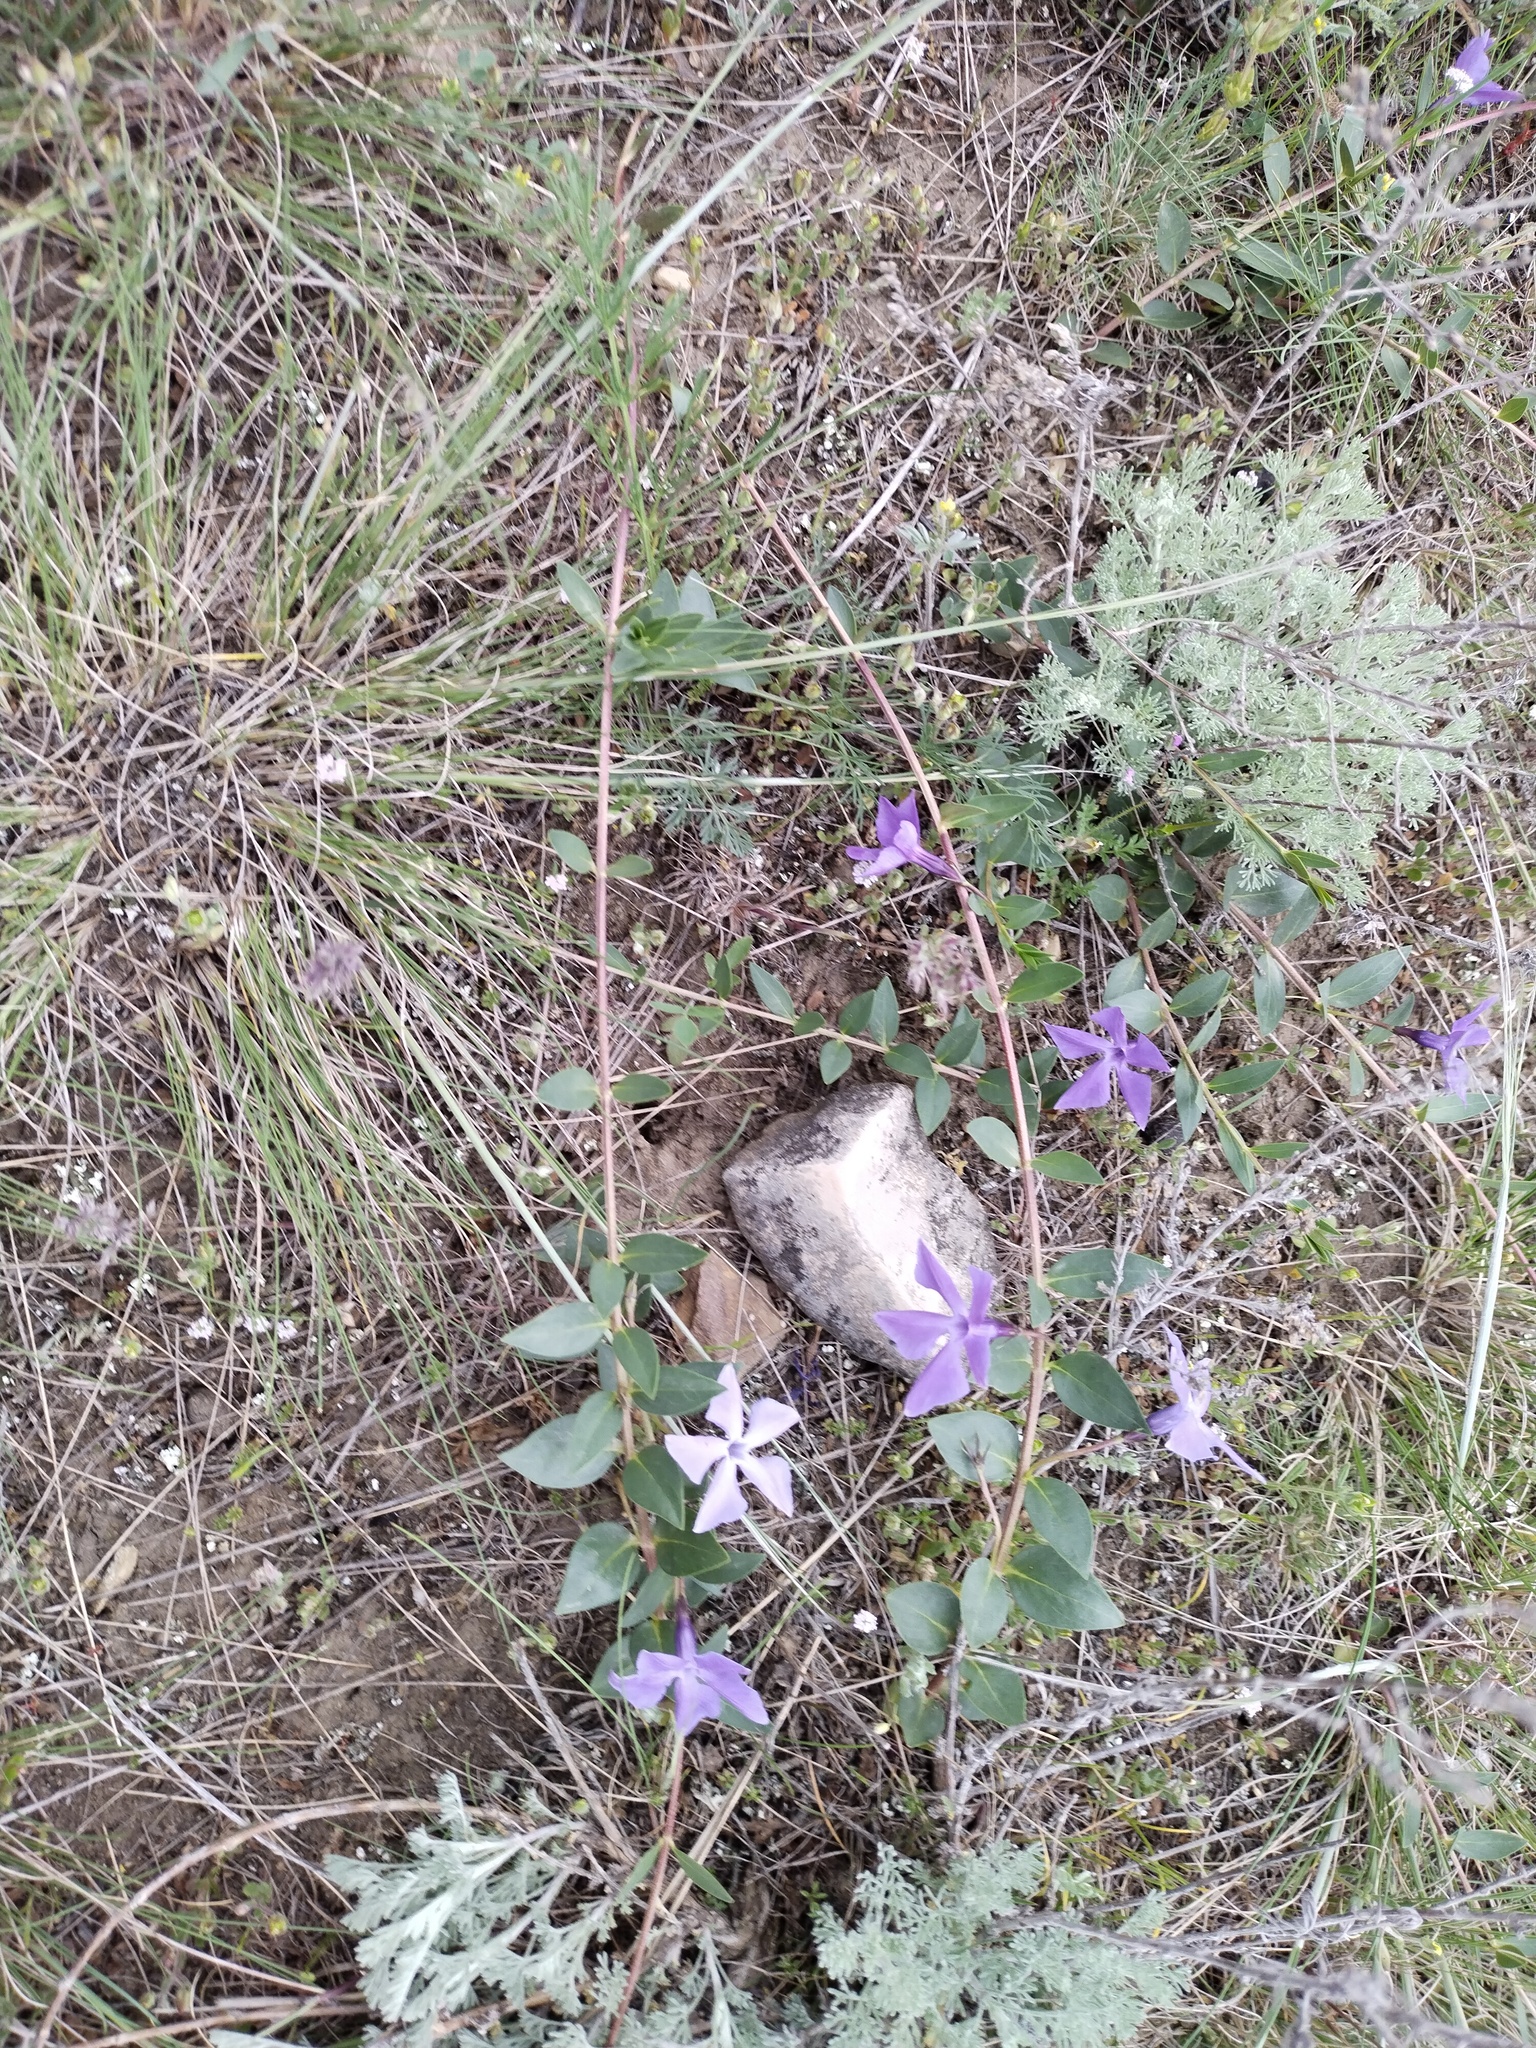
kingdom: Plantae
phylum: Tracheophyta
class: Magnoliopsida
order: Gentianales
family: Apocynaceae
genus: Vinca
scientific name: Vinca herbacea
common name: Herbaceous periwinkle
